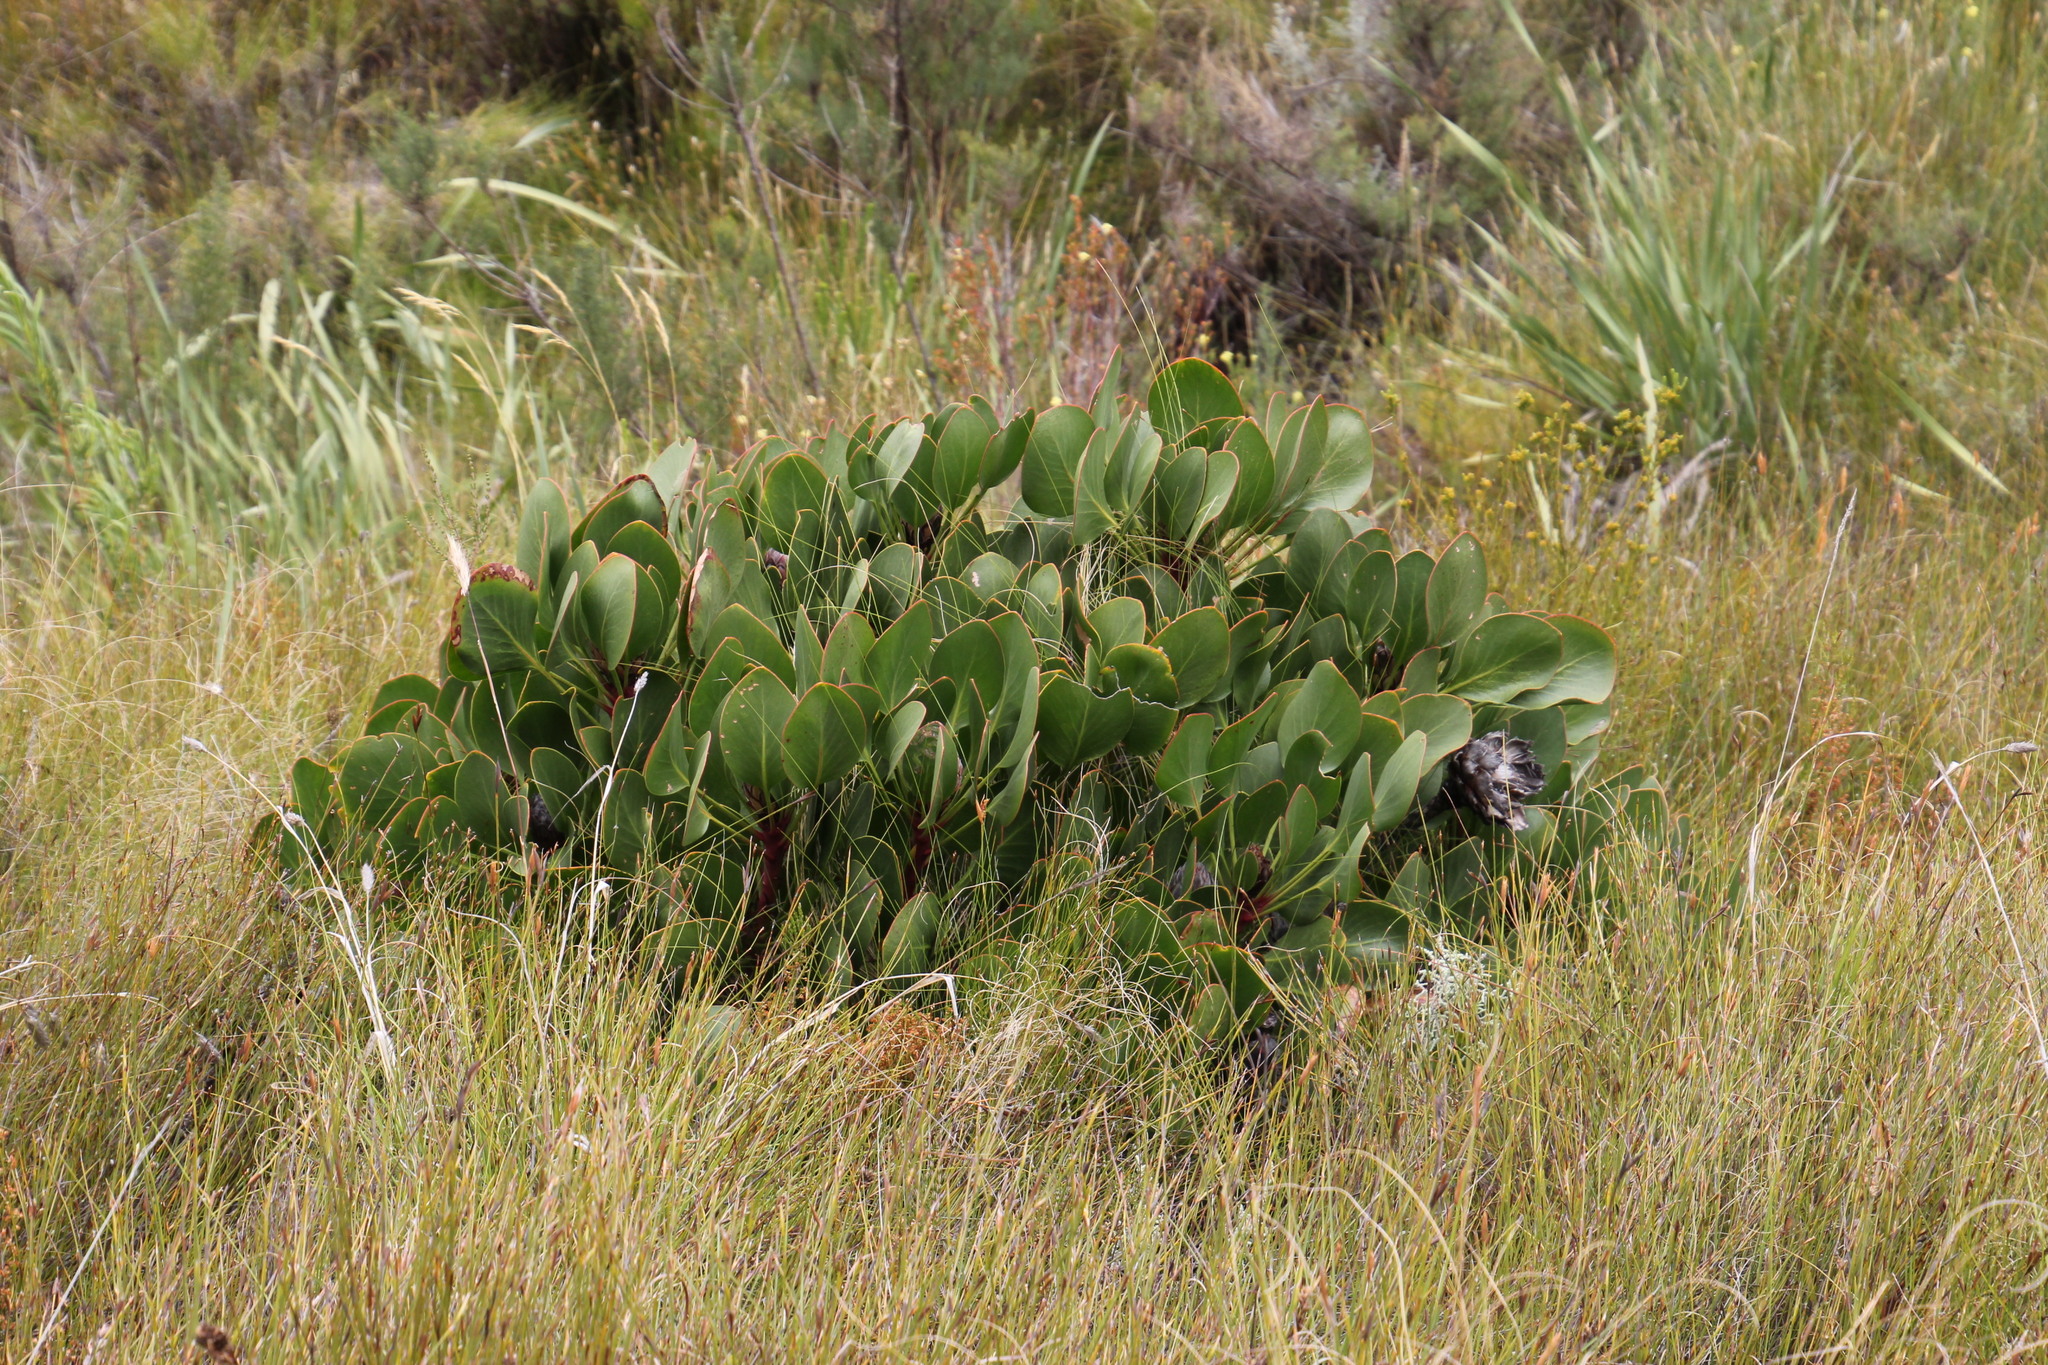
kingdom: Plantae
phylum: Tracheophyta
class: Magnoliopsida
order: Proteales
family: Proteaceae
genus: Protea
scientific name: Protea cynaroides
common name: King protea
